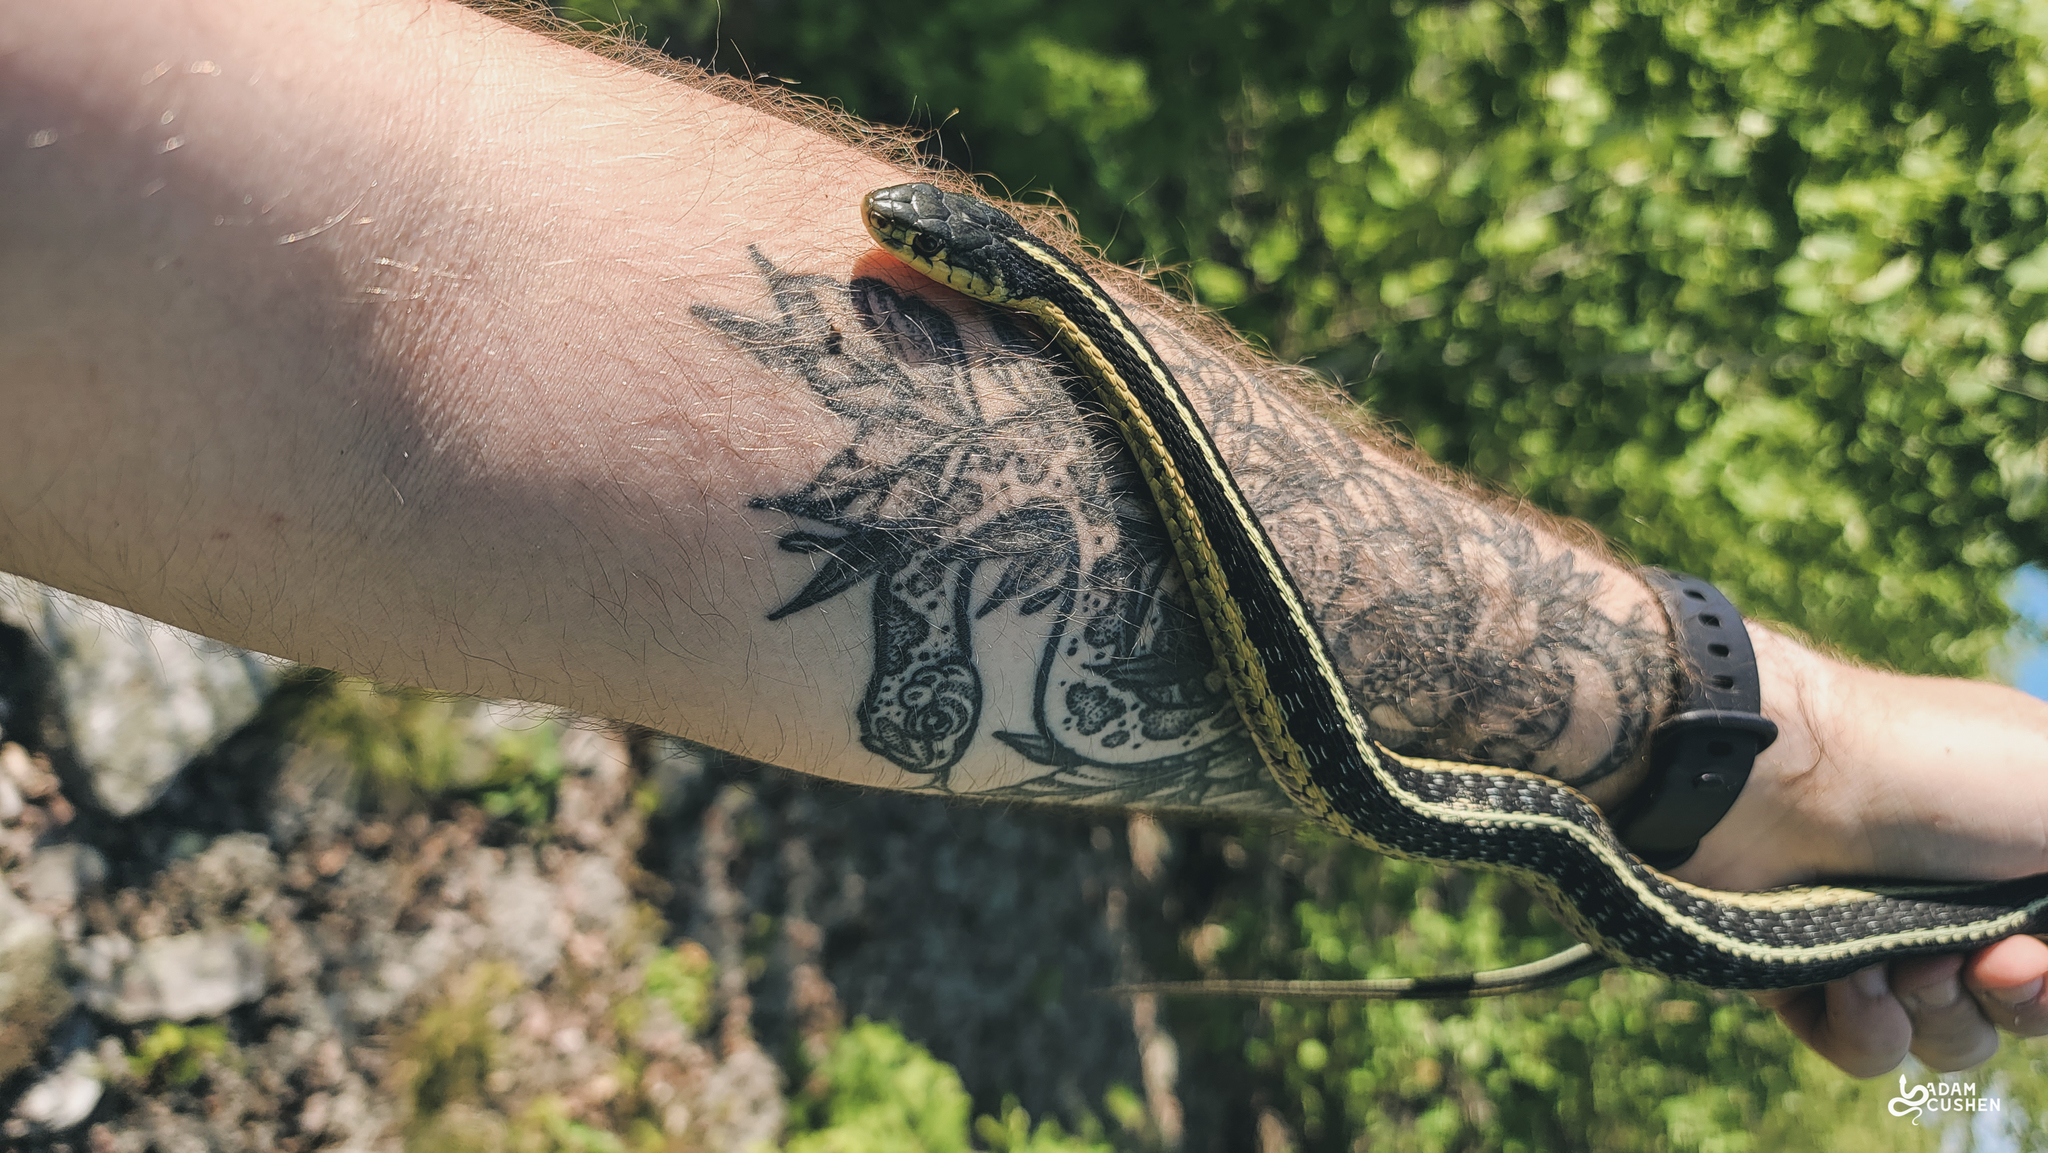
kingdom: Animalia
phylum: Chordata
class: Squamata
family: Colubridae
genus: Thamnophis
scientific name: Thamnophis sirtalis
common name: Common garter snake
